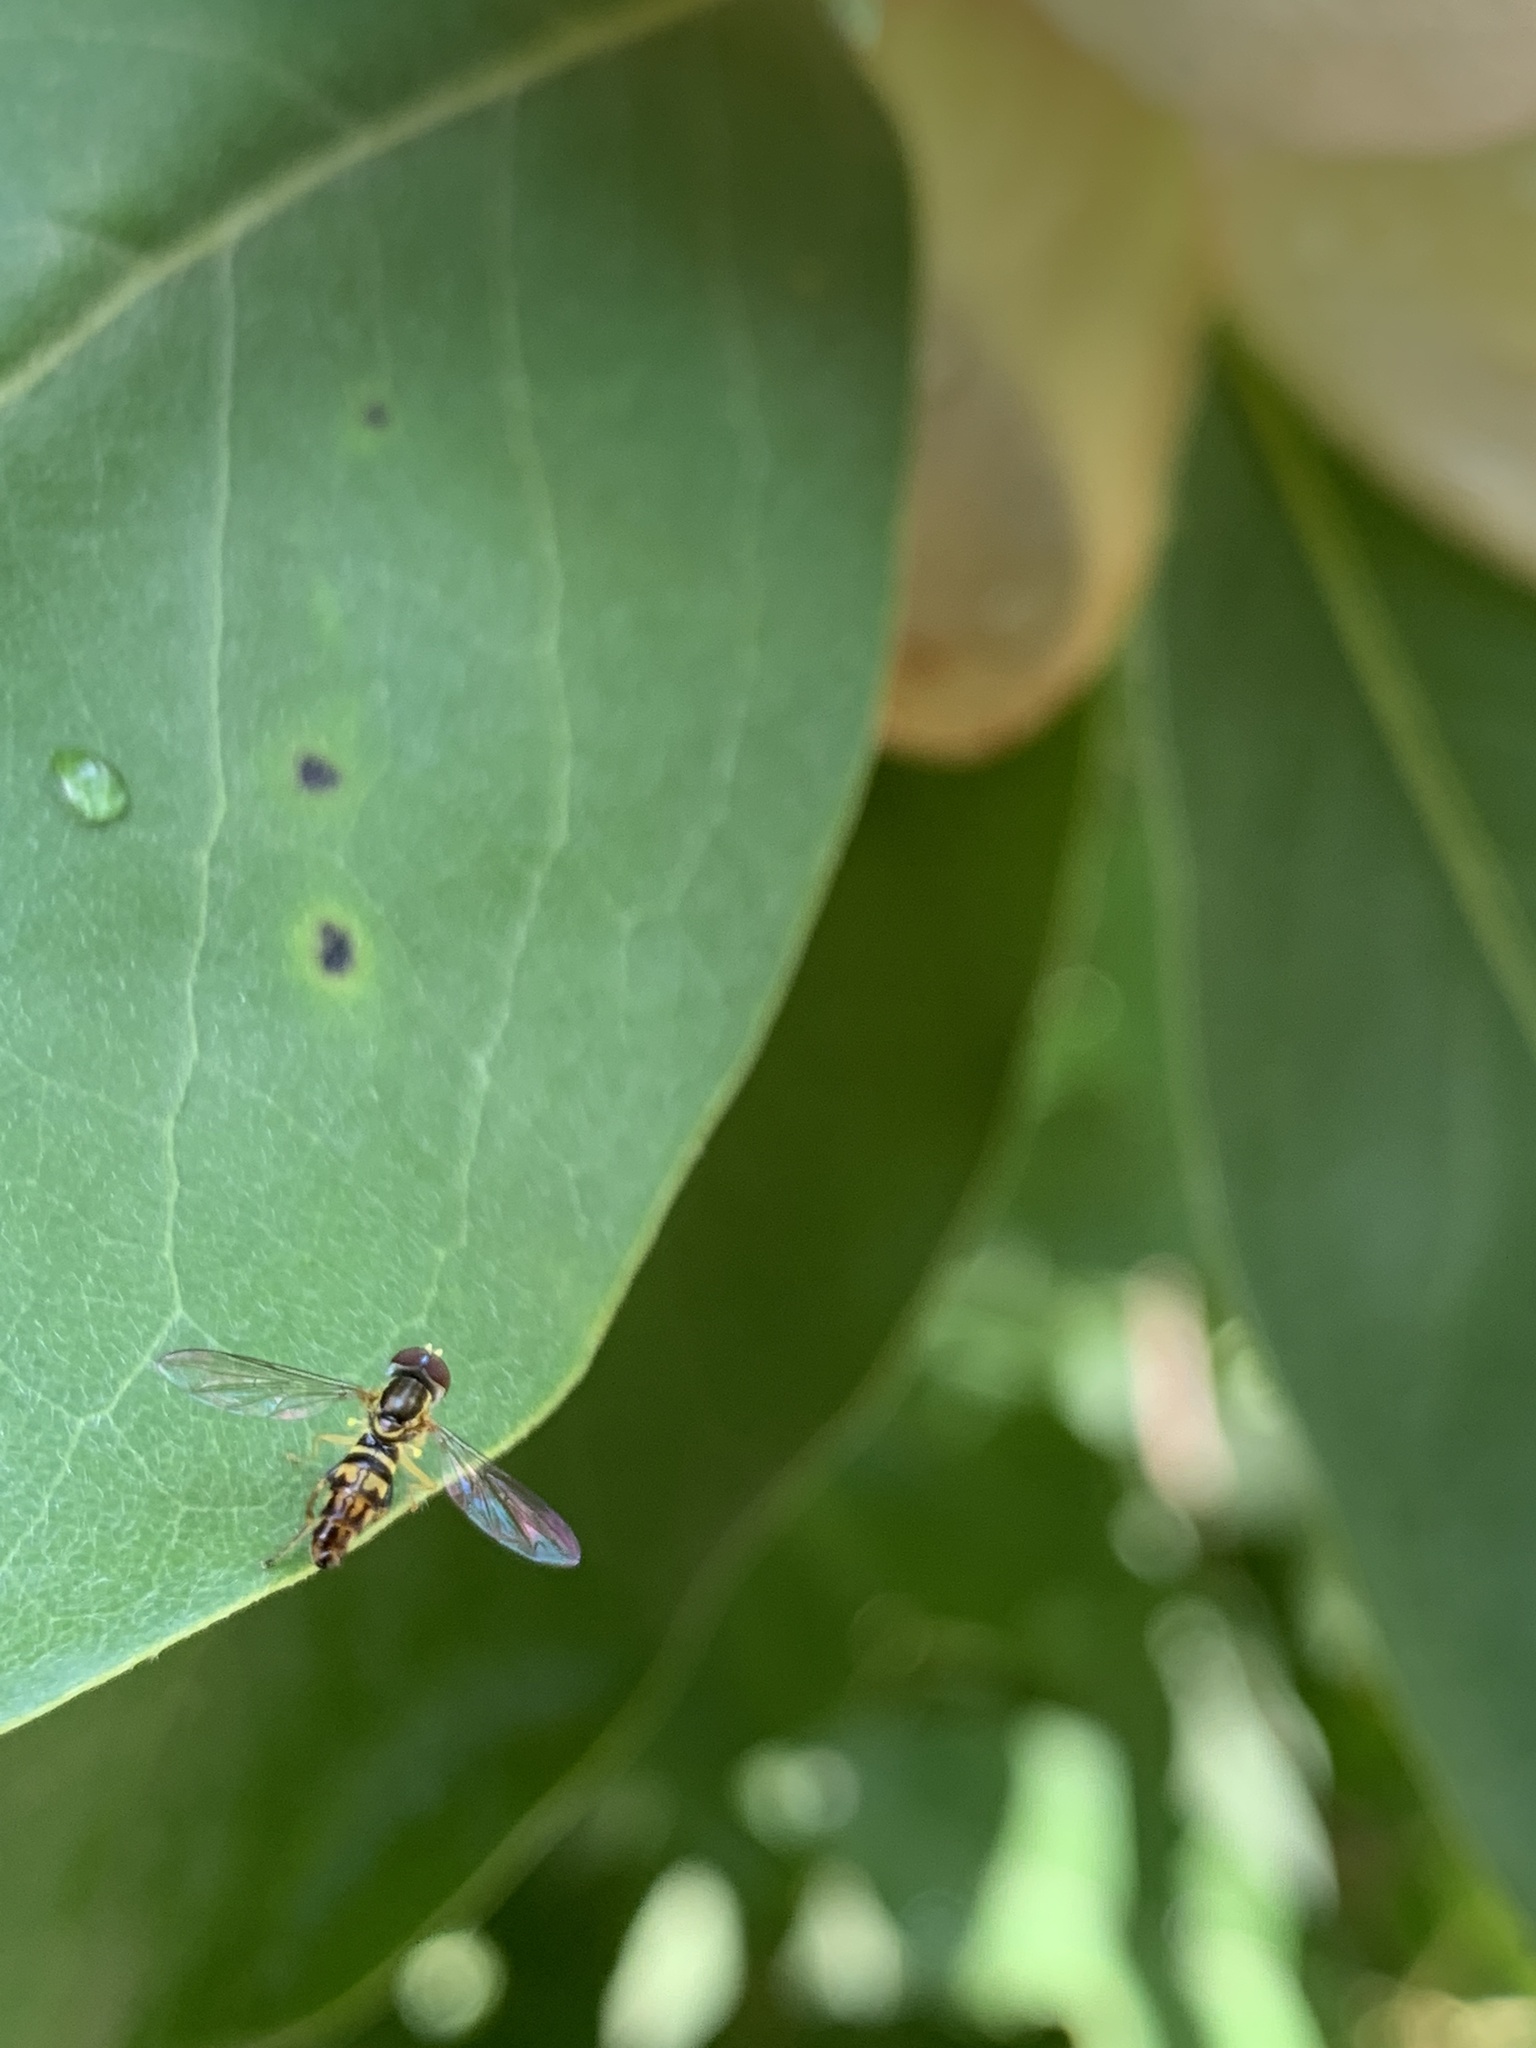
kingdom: Animalia
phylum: Arthropoda
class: Insecta
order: Diptera
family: Syrphidae
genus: Toxomerus
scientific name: Toxomerus geminatus
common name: Eastern calligrapher
